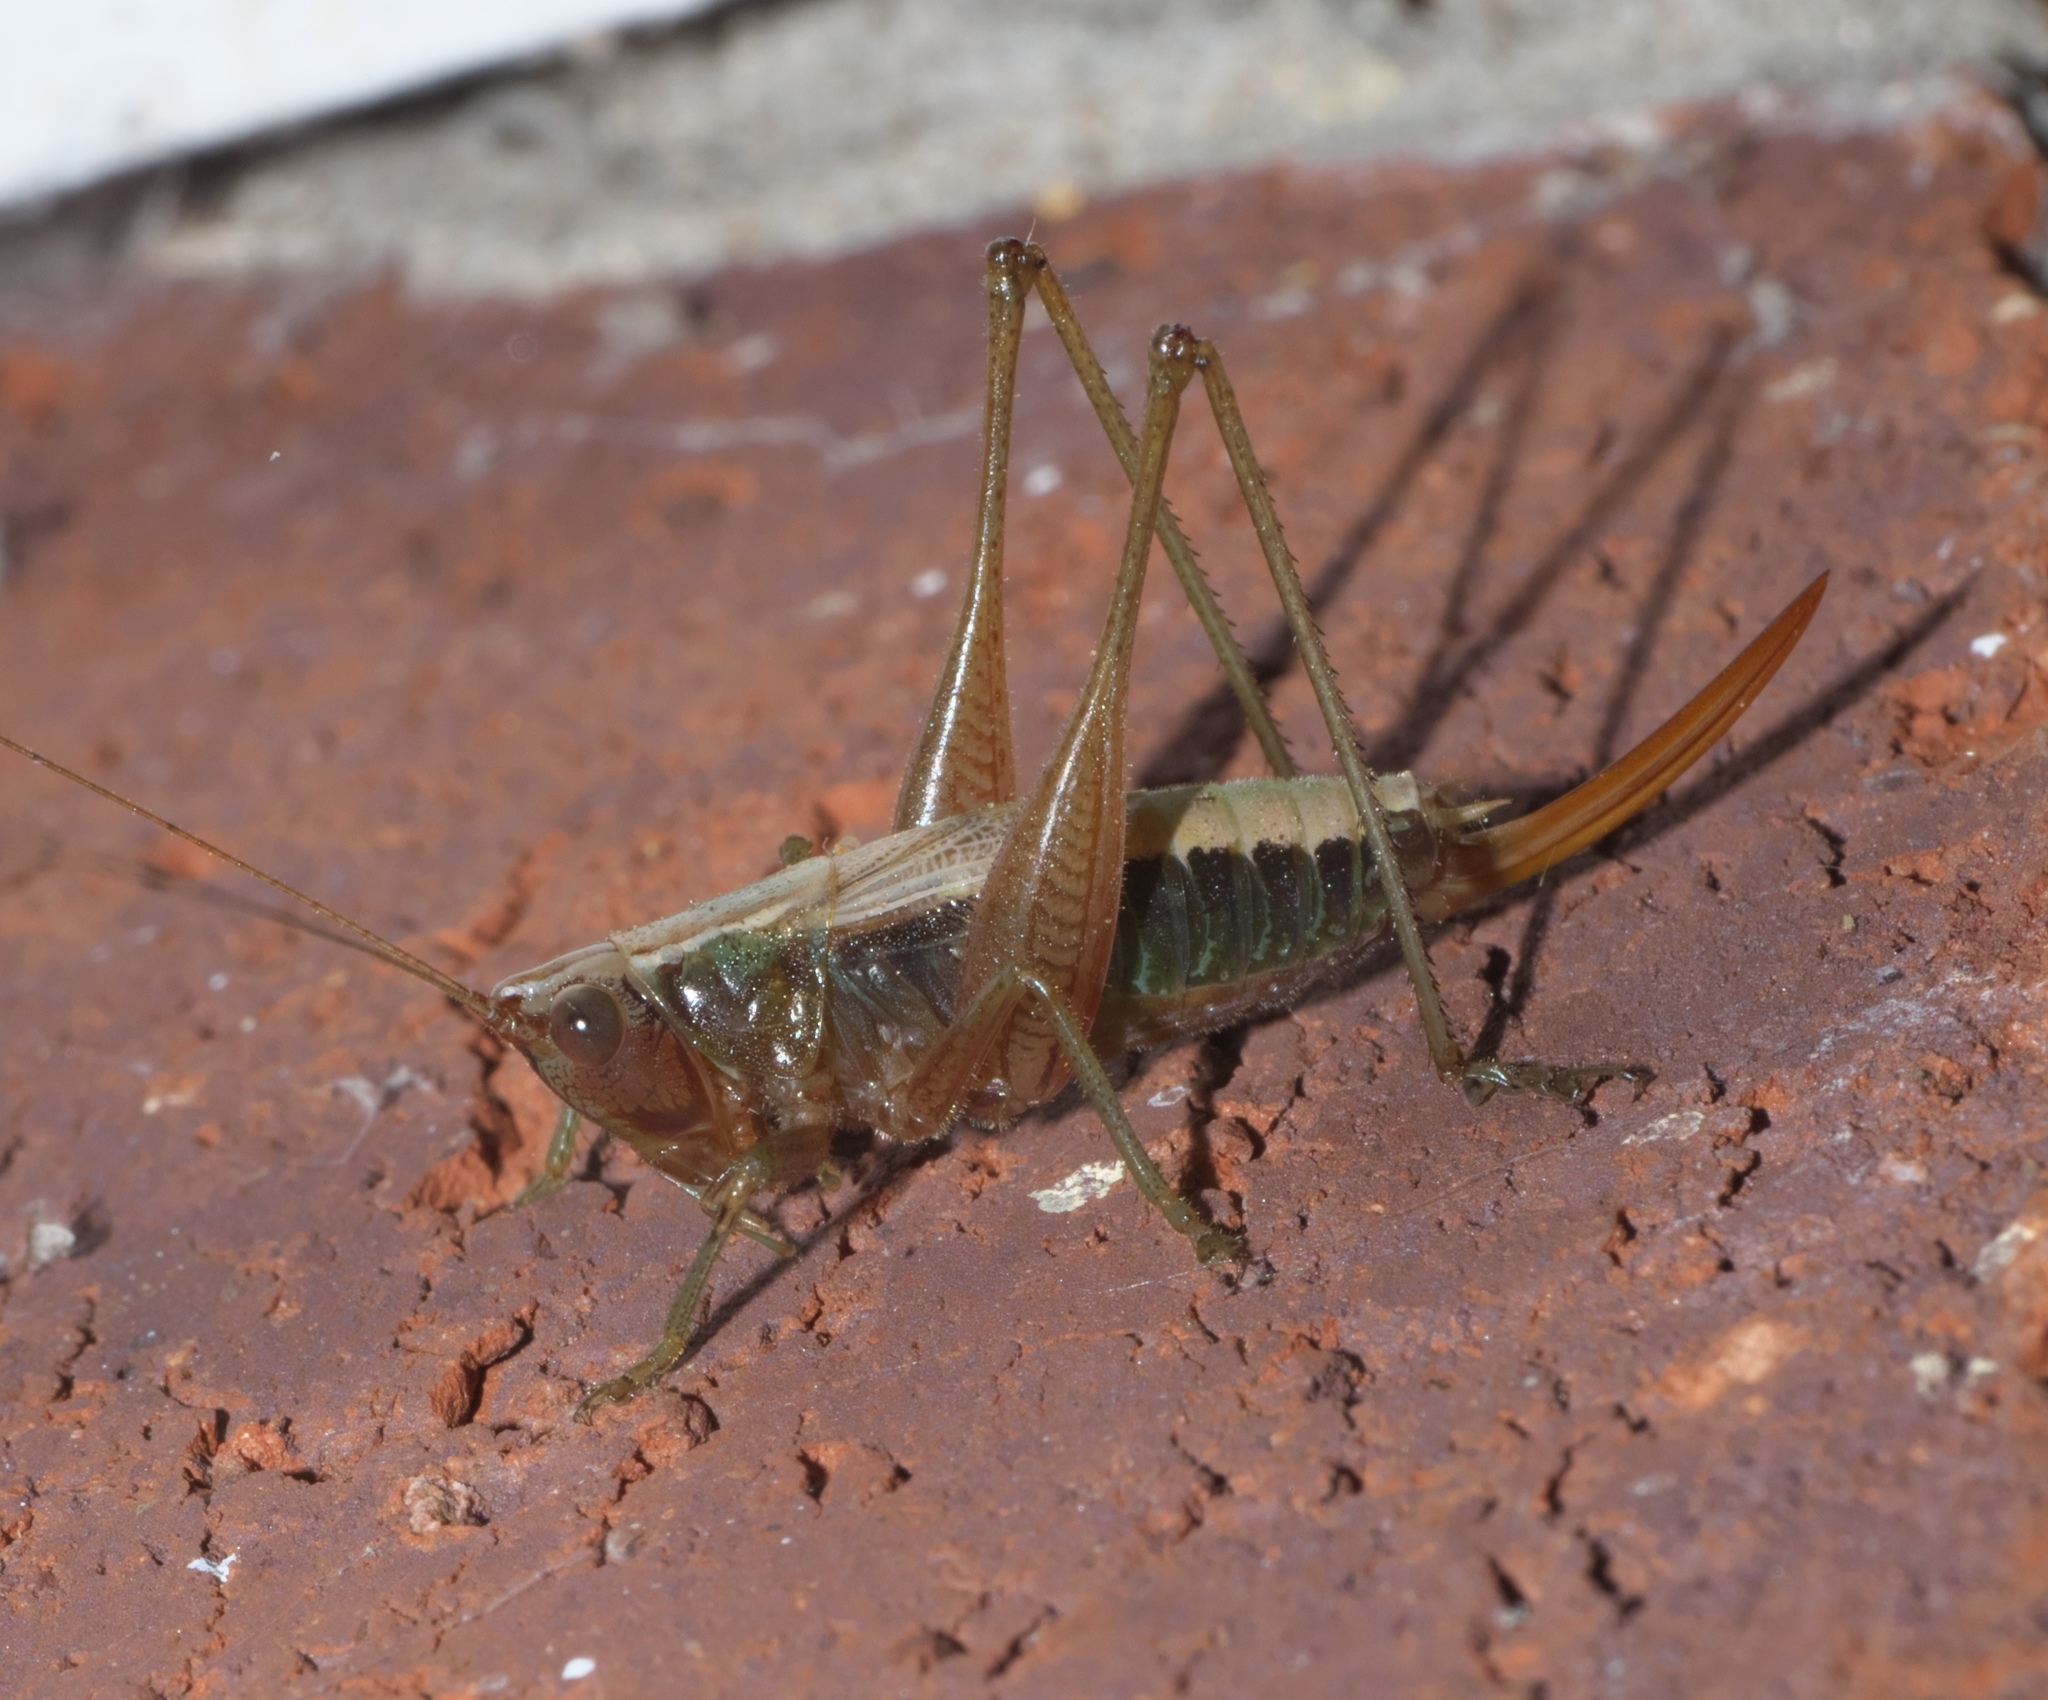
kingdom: Animalia
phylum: Arthropoda
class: Insecta
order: Orthoptera
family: Tettigoniidae
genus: Conocephalus
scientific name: Conocephalus nemoralis
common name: Woodland meadow katydid
